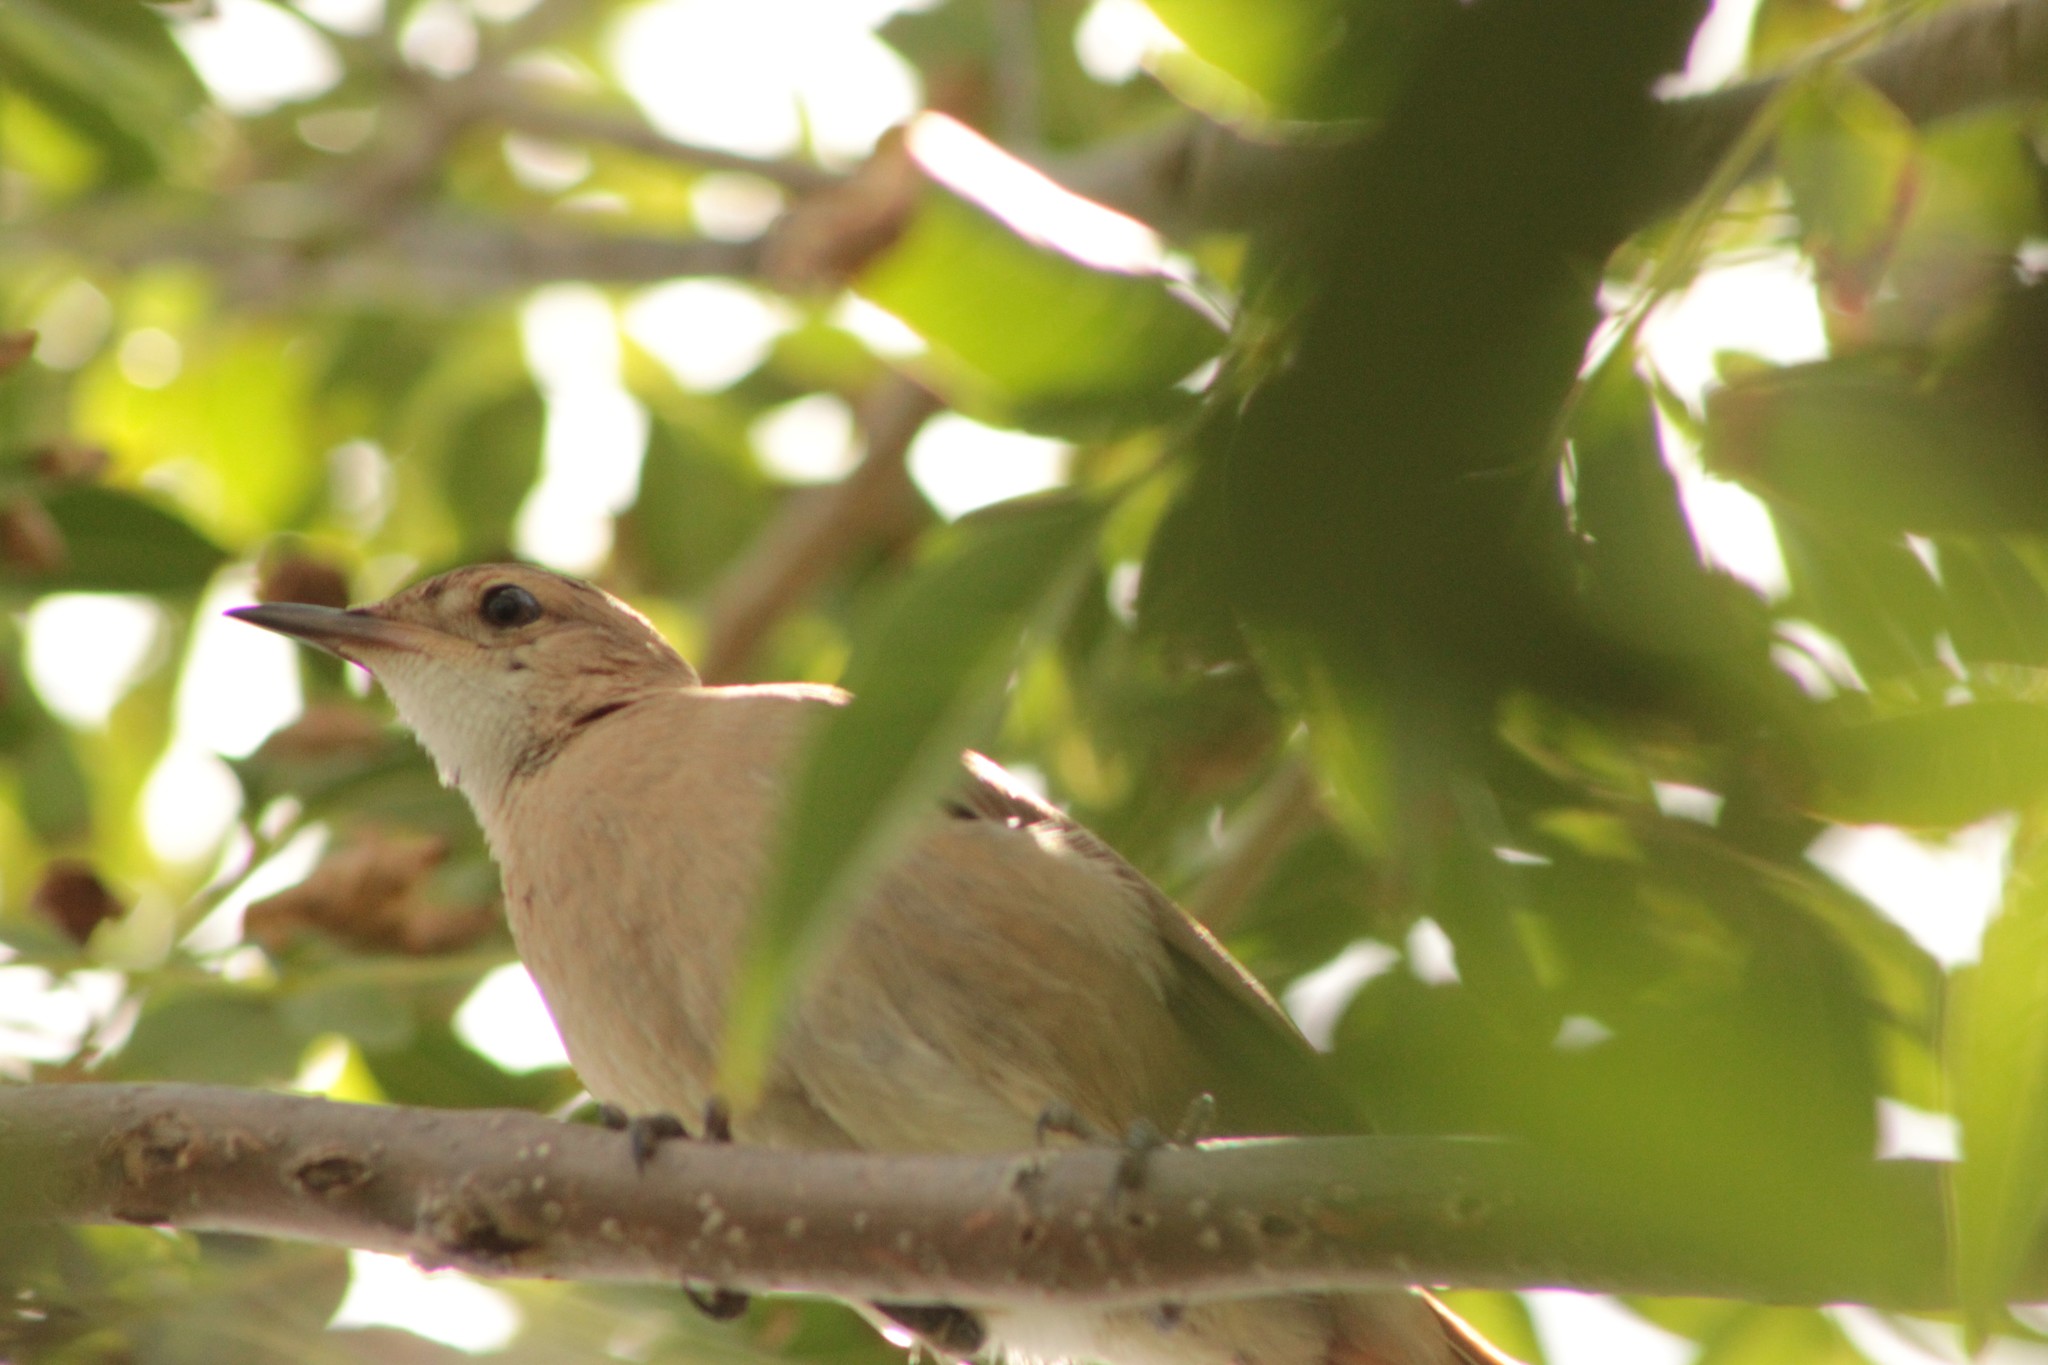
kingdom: Animalia
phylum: Chordata
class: Aves
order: Passeriformes
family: Furnariidae
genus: Furnarius
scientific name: Furnarius rufus
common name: Rufous hornero
